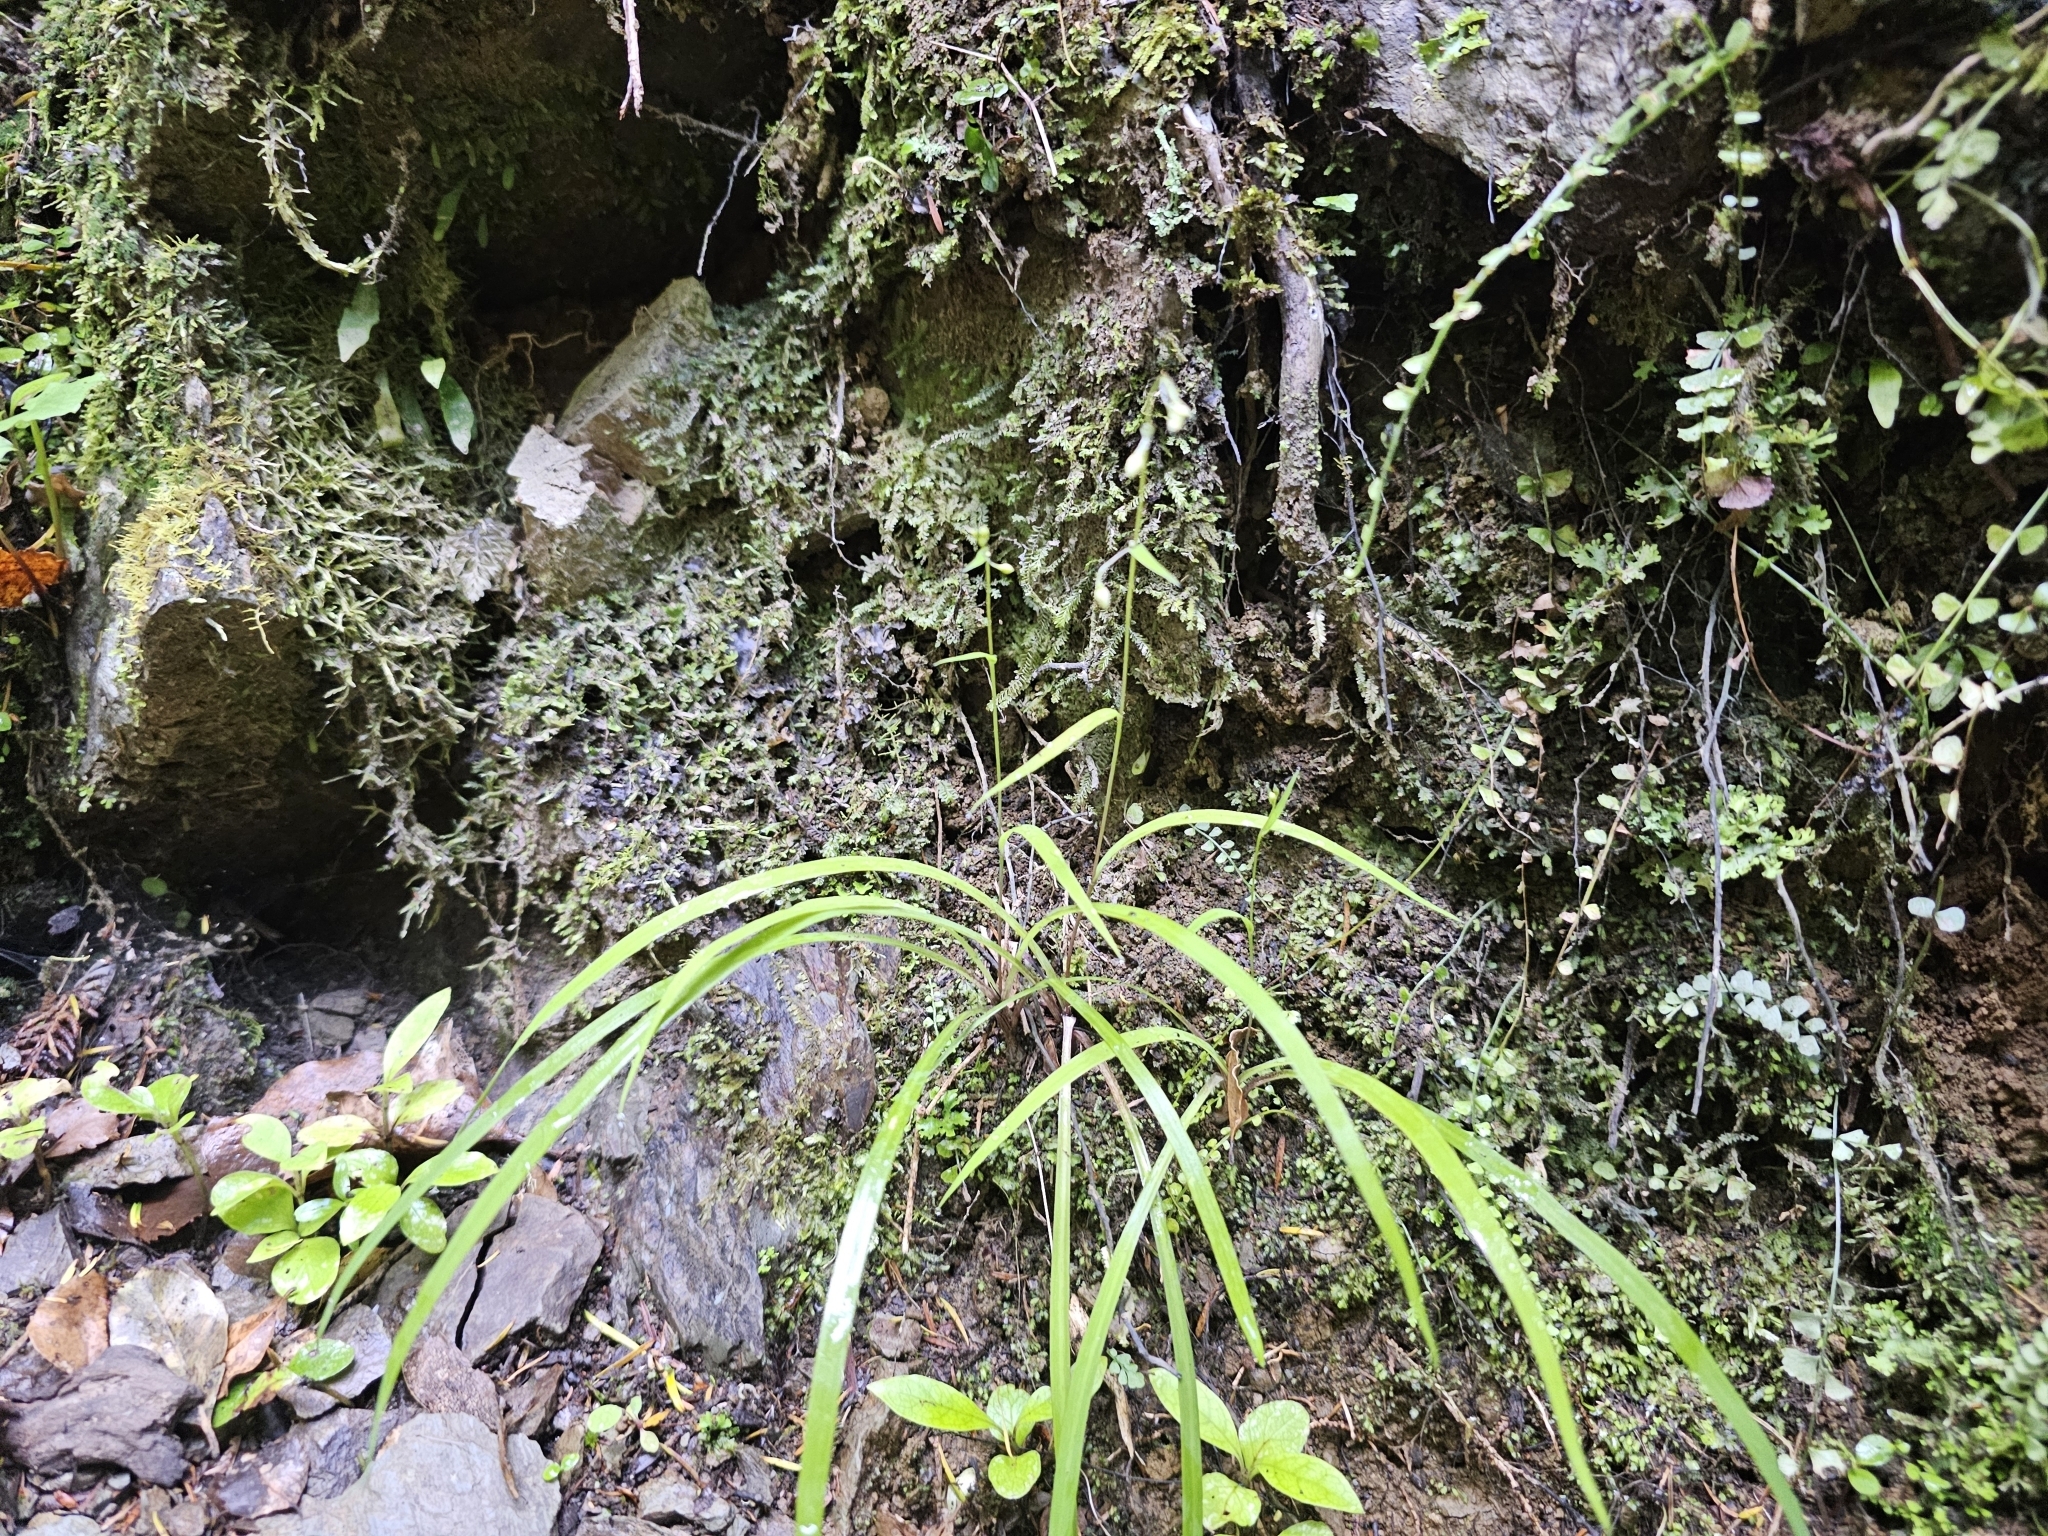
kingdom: Plantae
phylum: Tracheophyta
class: Liliopsida
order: Asparagales
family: Asparagaceae
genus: Arthropodium
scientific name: Arthropodium candidum
